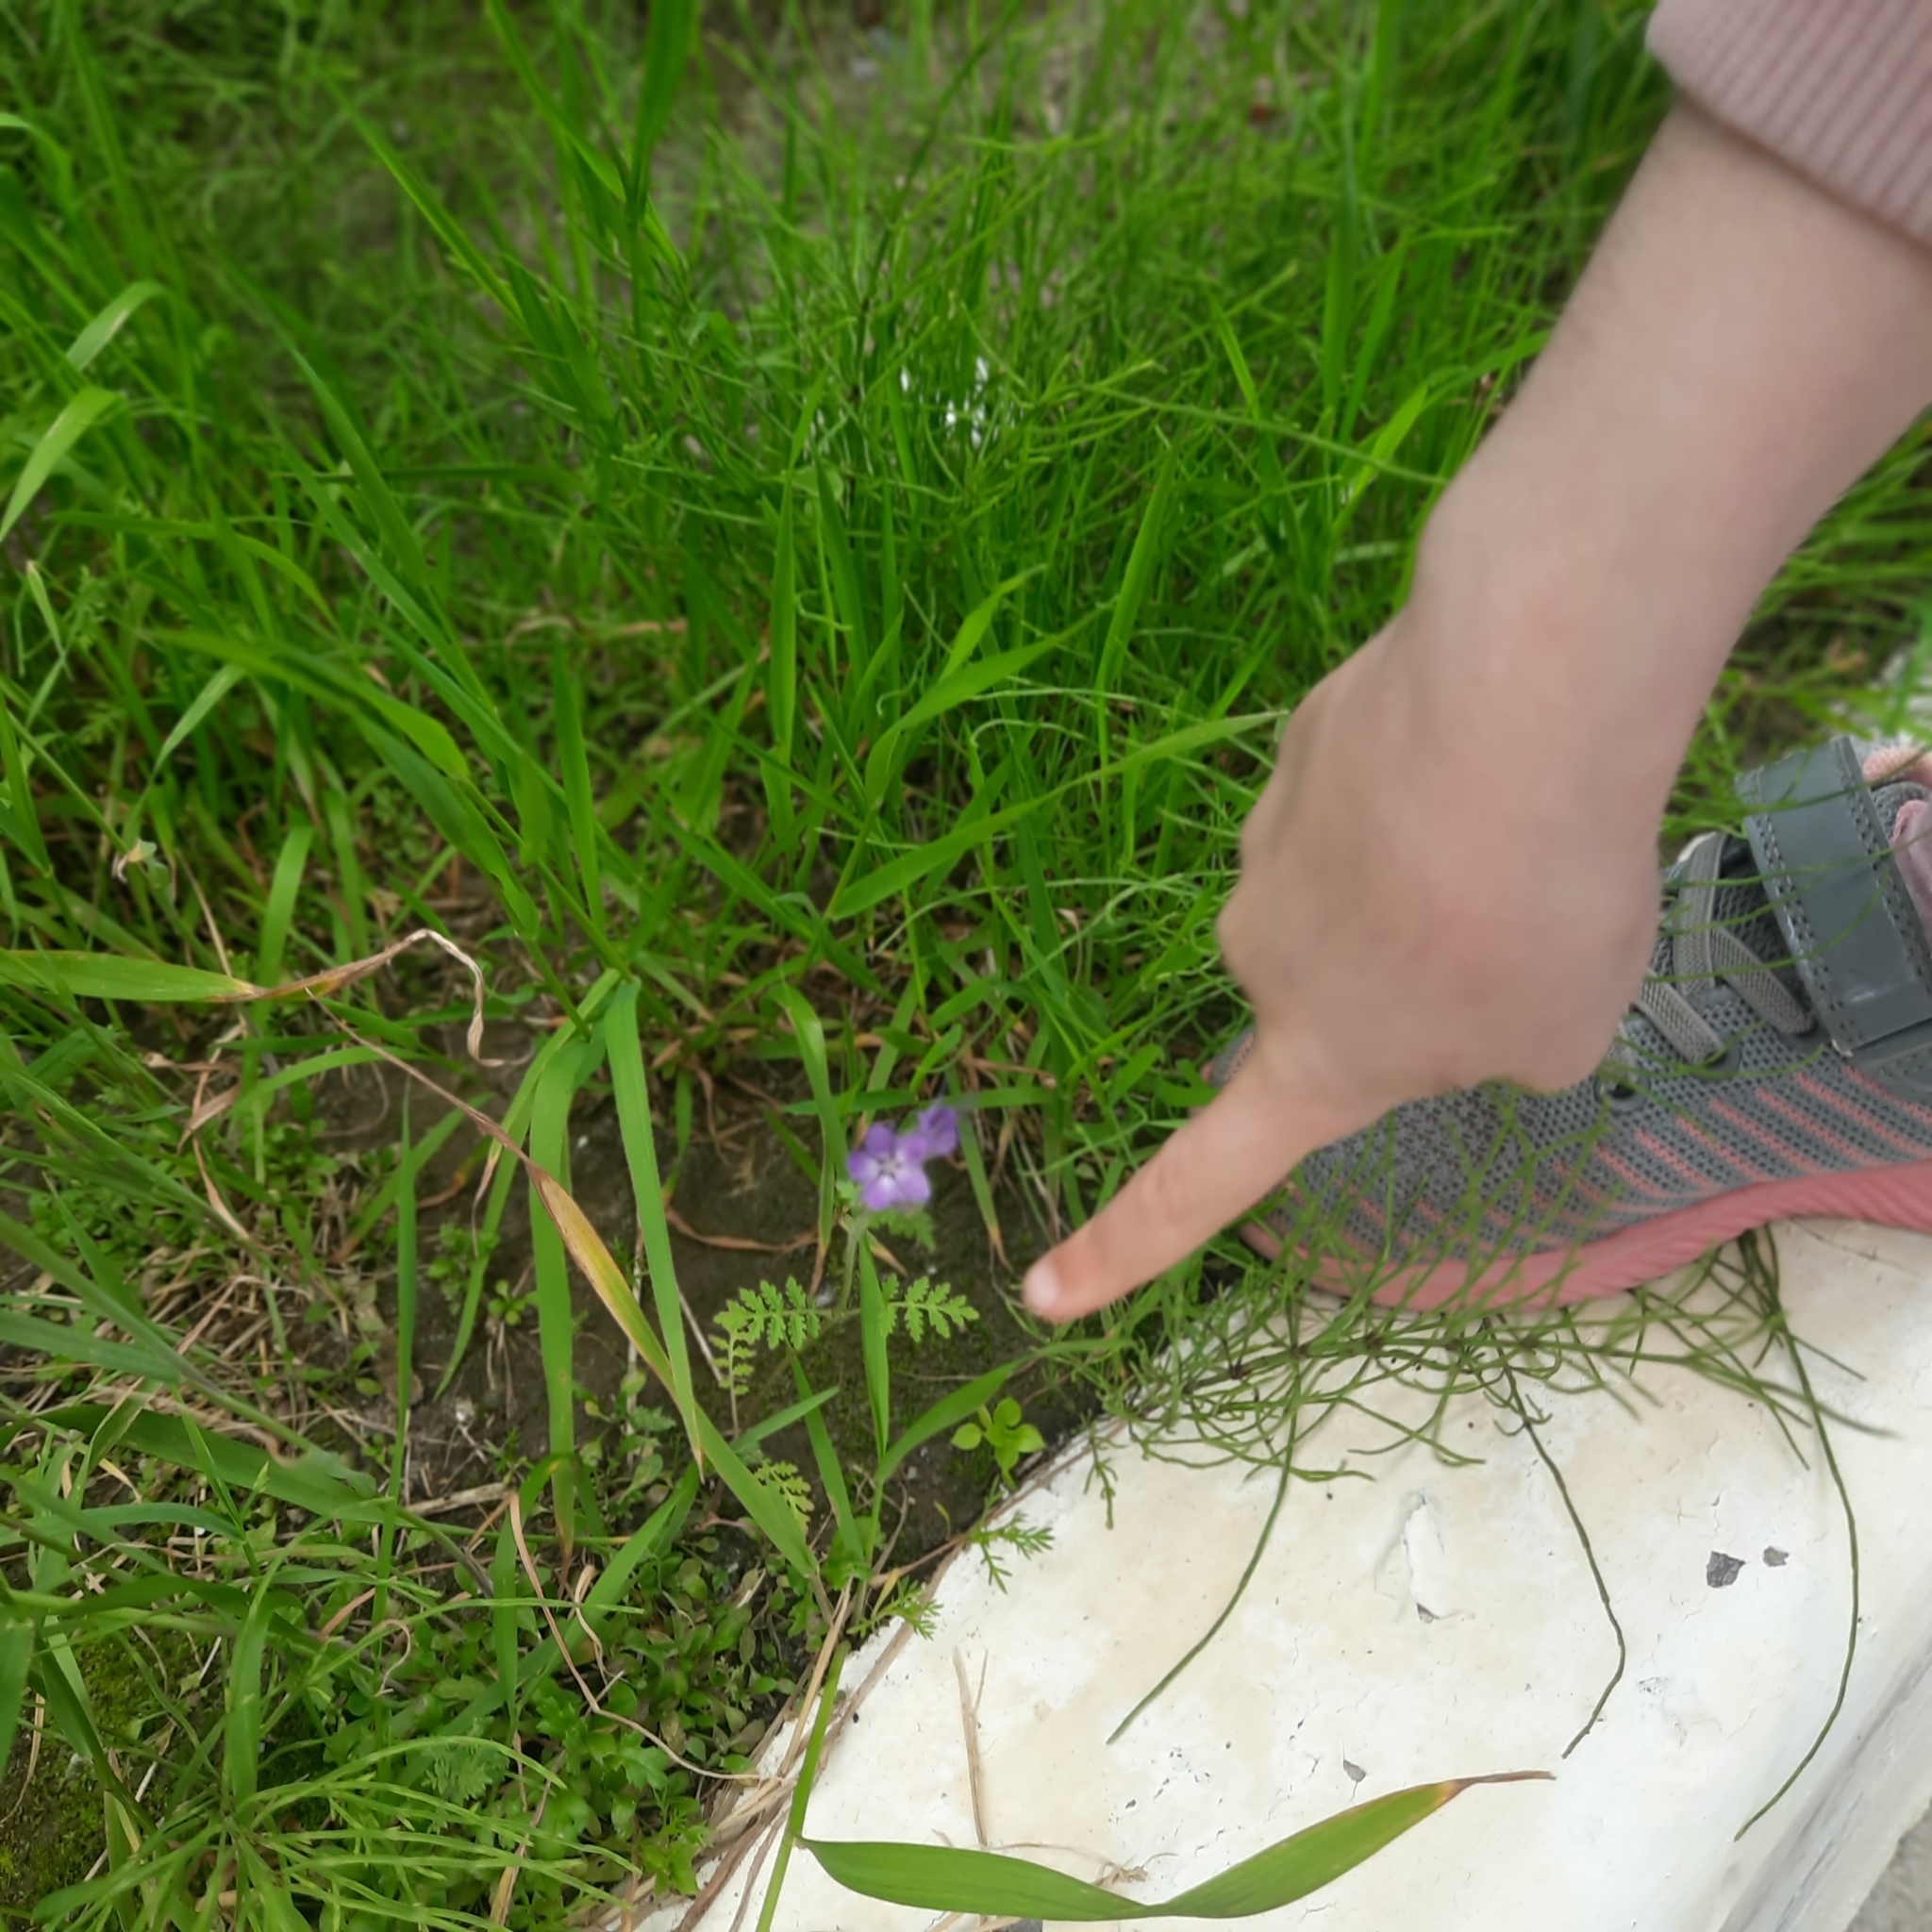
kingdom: Plantae
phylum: Tracheophyta
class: Magnoliopsida
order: Boraginales
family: Hydrophyllaceae
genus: Phacelia
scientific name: Phacelia tanacetifolia
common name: Phacelia
